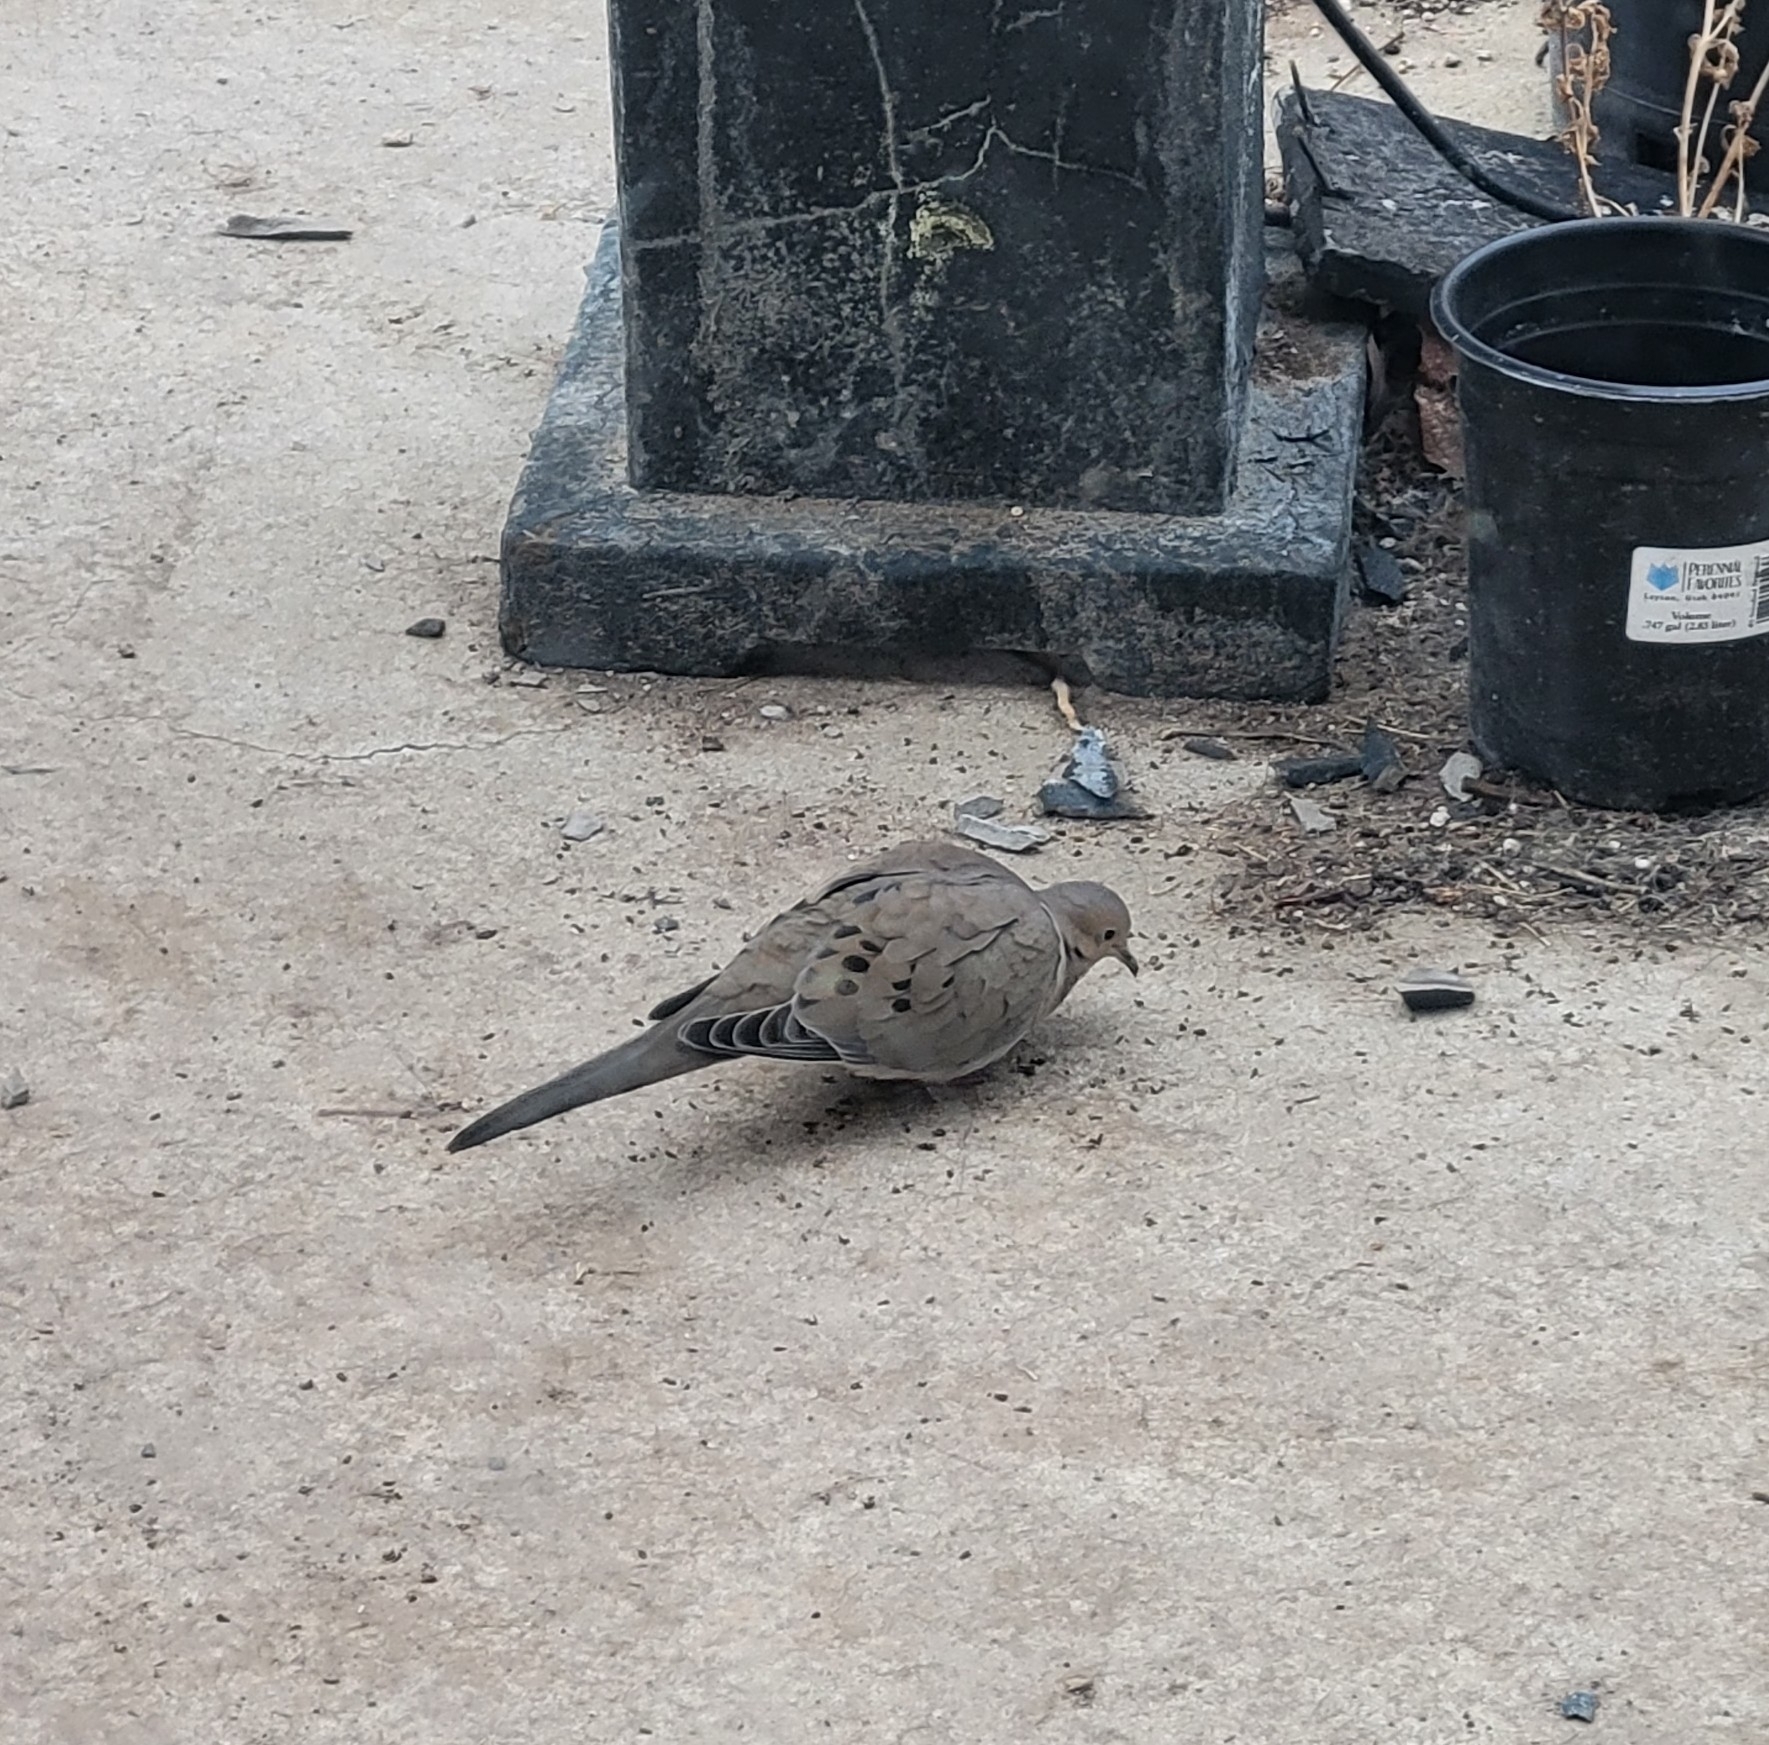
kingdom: Animalia
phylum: Chordata
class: Aves
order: Columbiformes
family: Columbidae
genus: Zenaida
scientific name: Zenaida macroura
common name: Mourning dove
